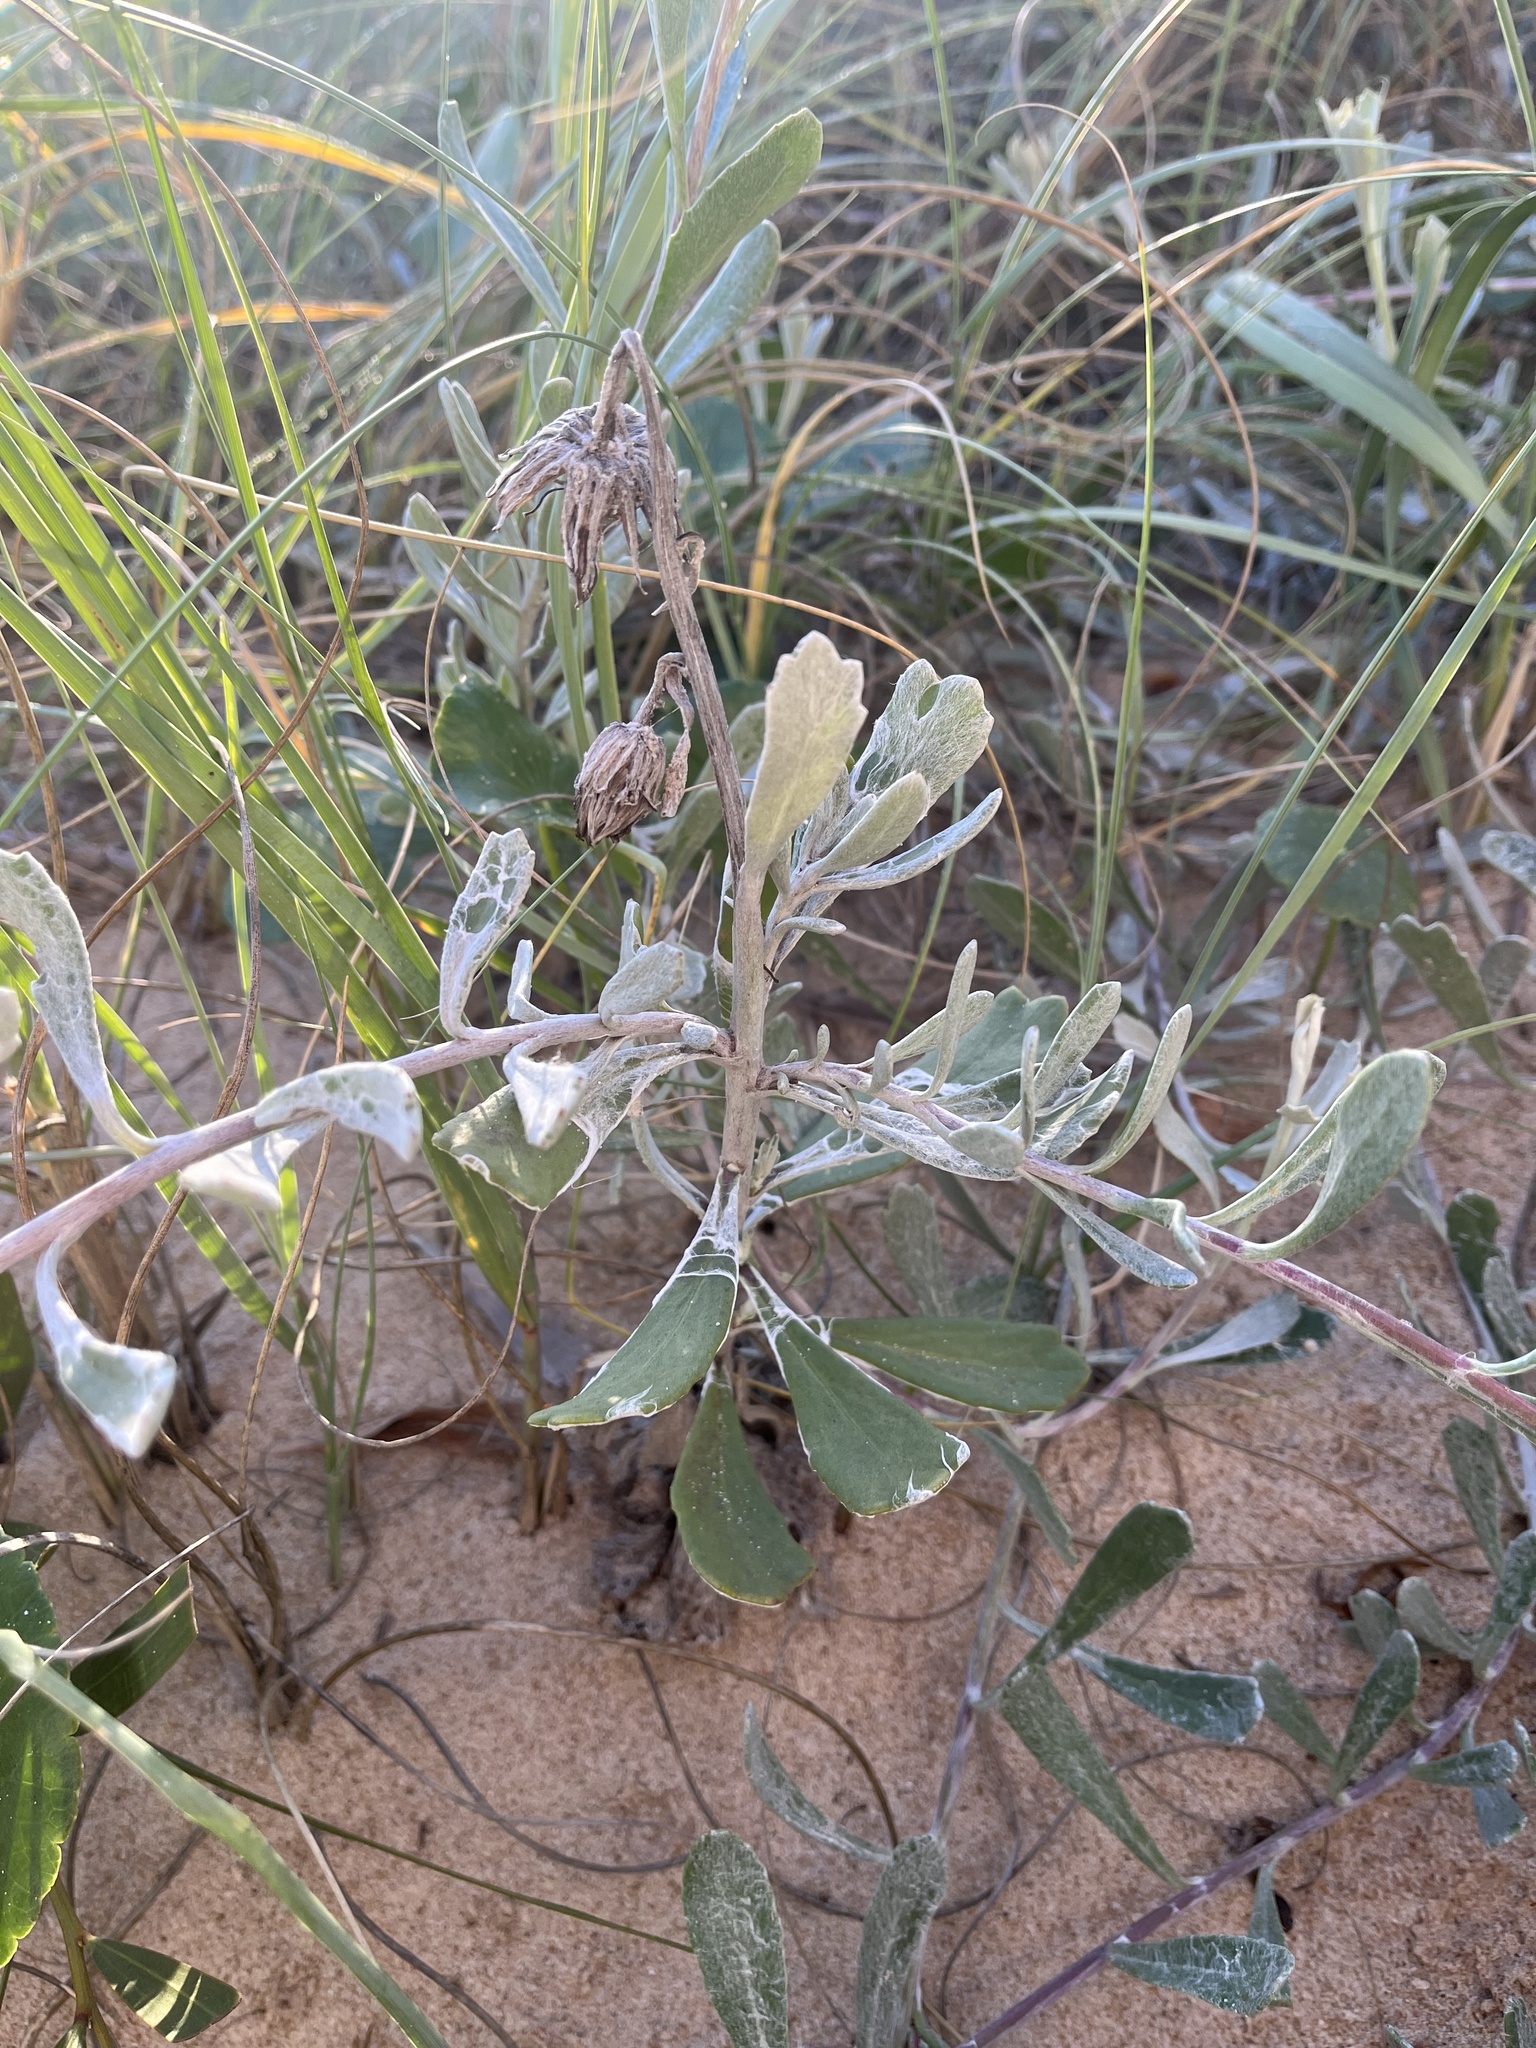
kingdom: Plantae
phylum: Tracheophyta
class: Magnoliopsida
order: Asterales
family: Asteraceae
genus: Senecio
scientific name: Senecio crassiflorus
